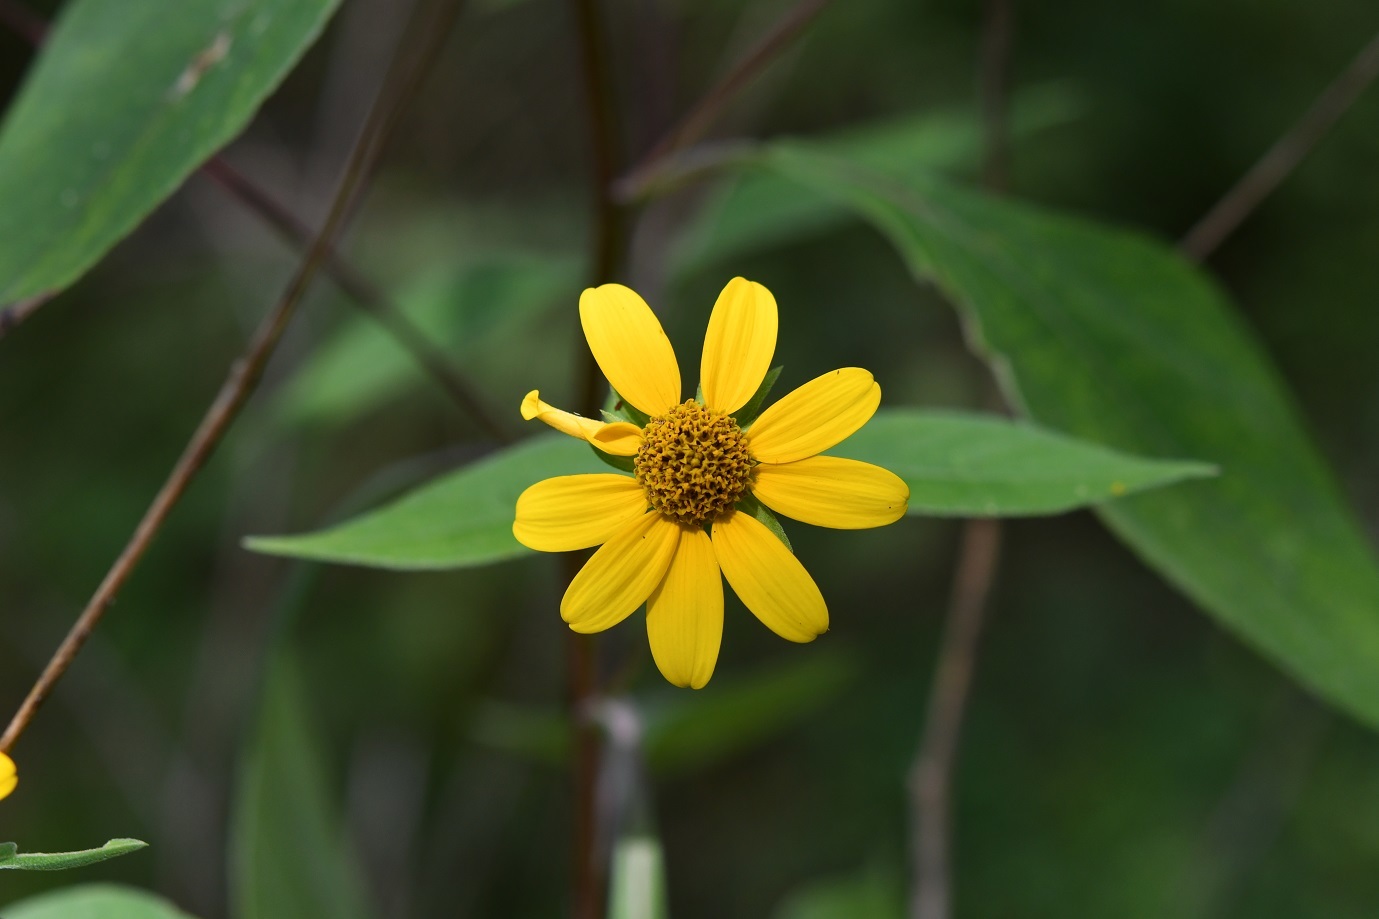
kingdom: Plantae
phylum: Tracheophyta
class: Magnoliopsida
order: Asterales
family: Asteraceae
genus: Verbesina
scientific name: Verbesina hypoglauca
